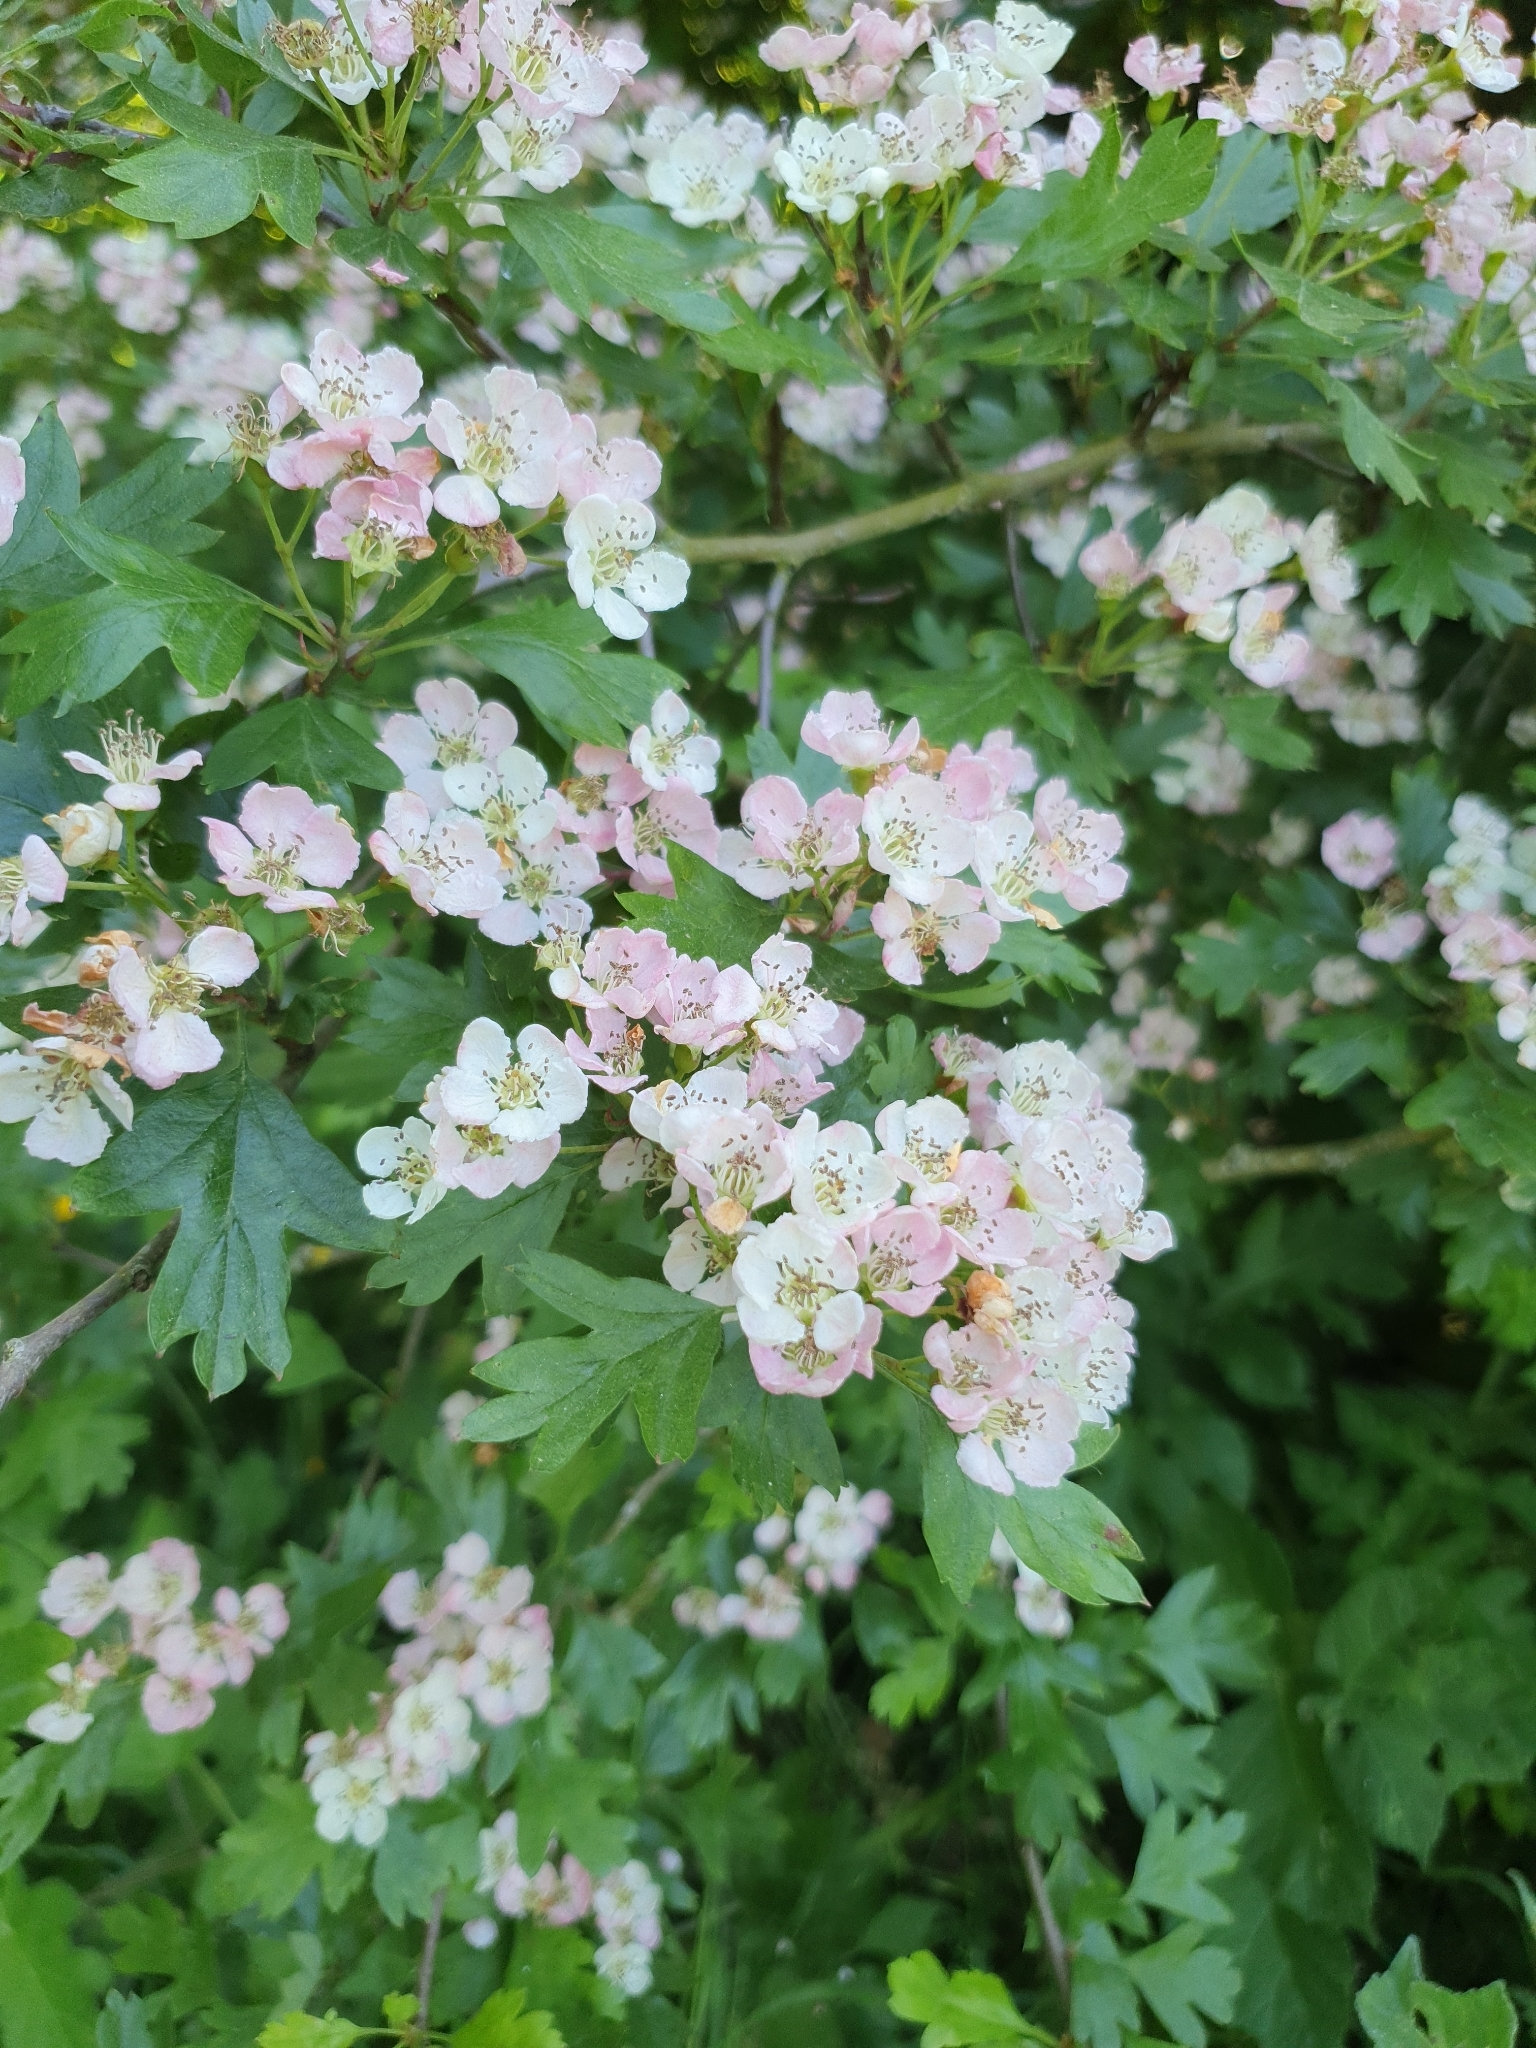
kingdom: Plantae
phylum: Tracheophyta
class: Magnoliopsida
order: Rosales
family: Rosaceae
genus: Crataegus
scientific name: Crataegus monogyna
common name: Hawthorn
